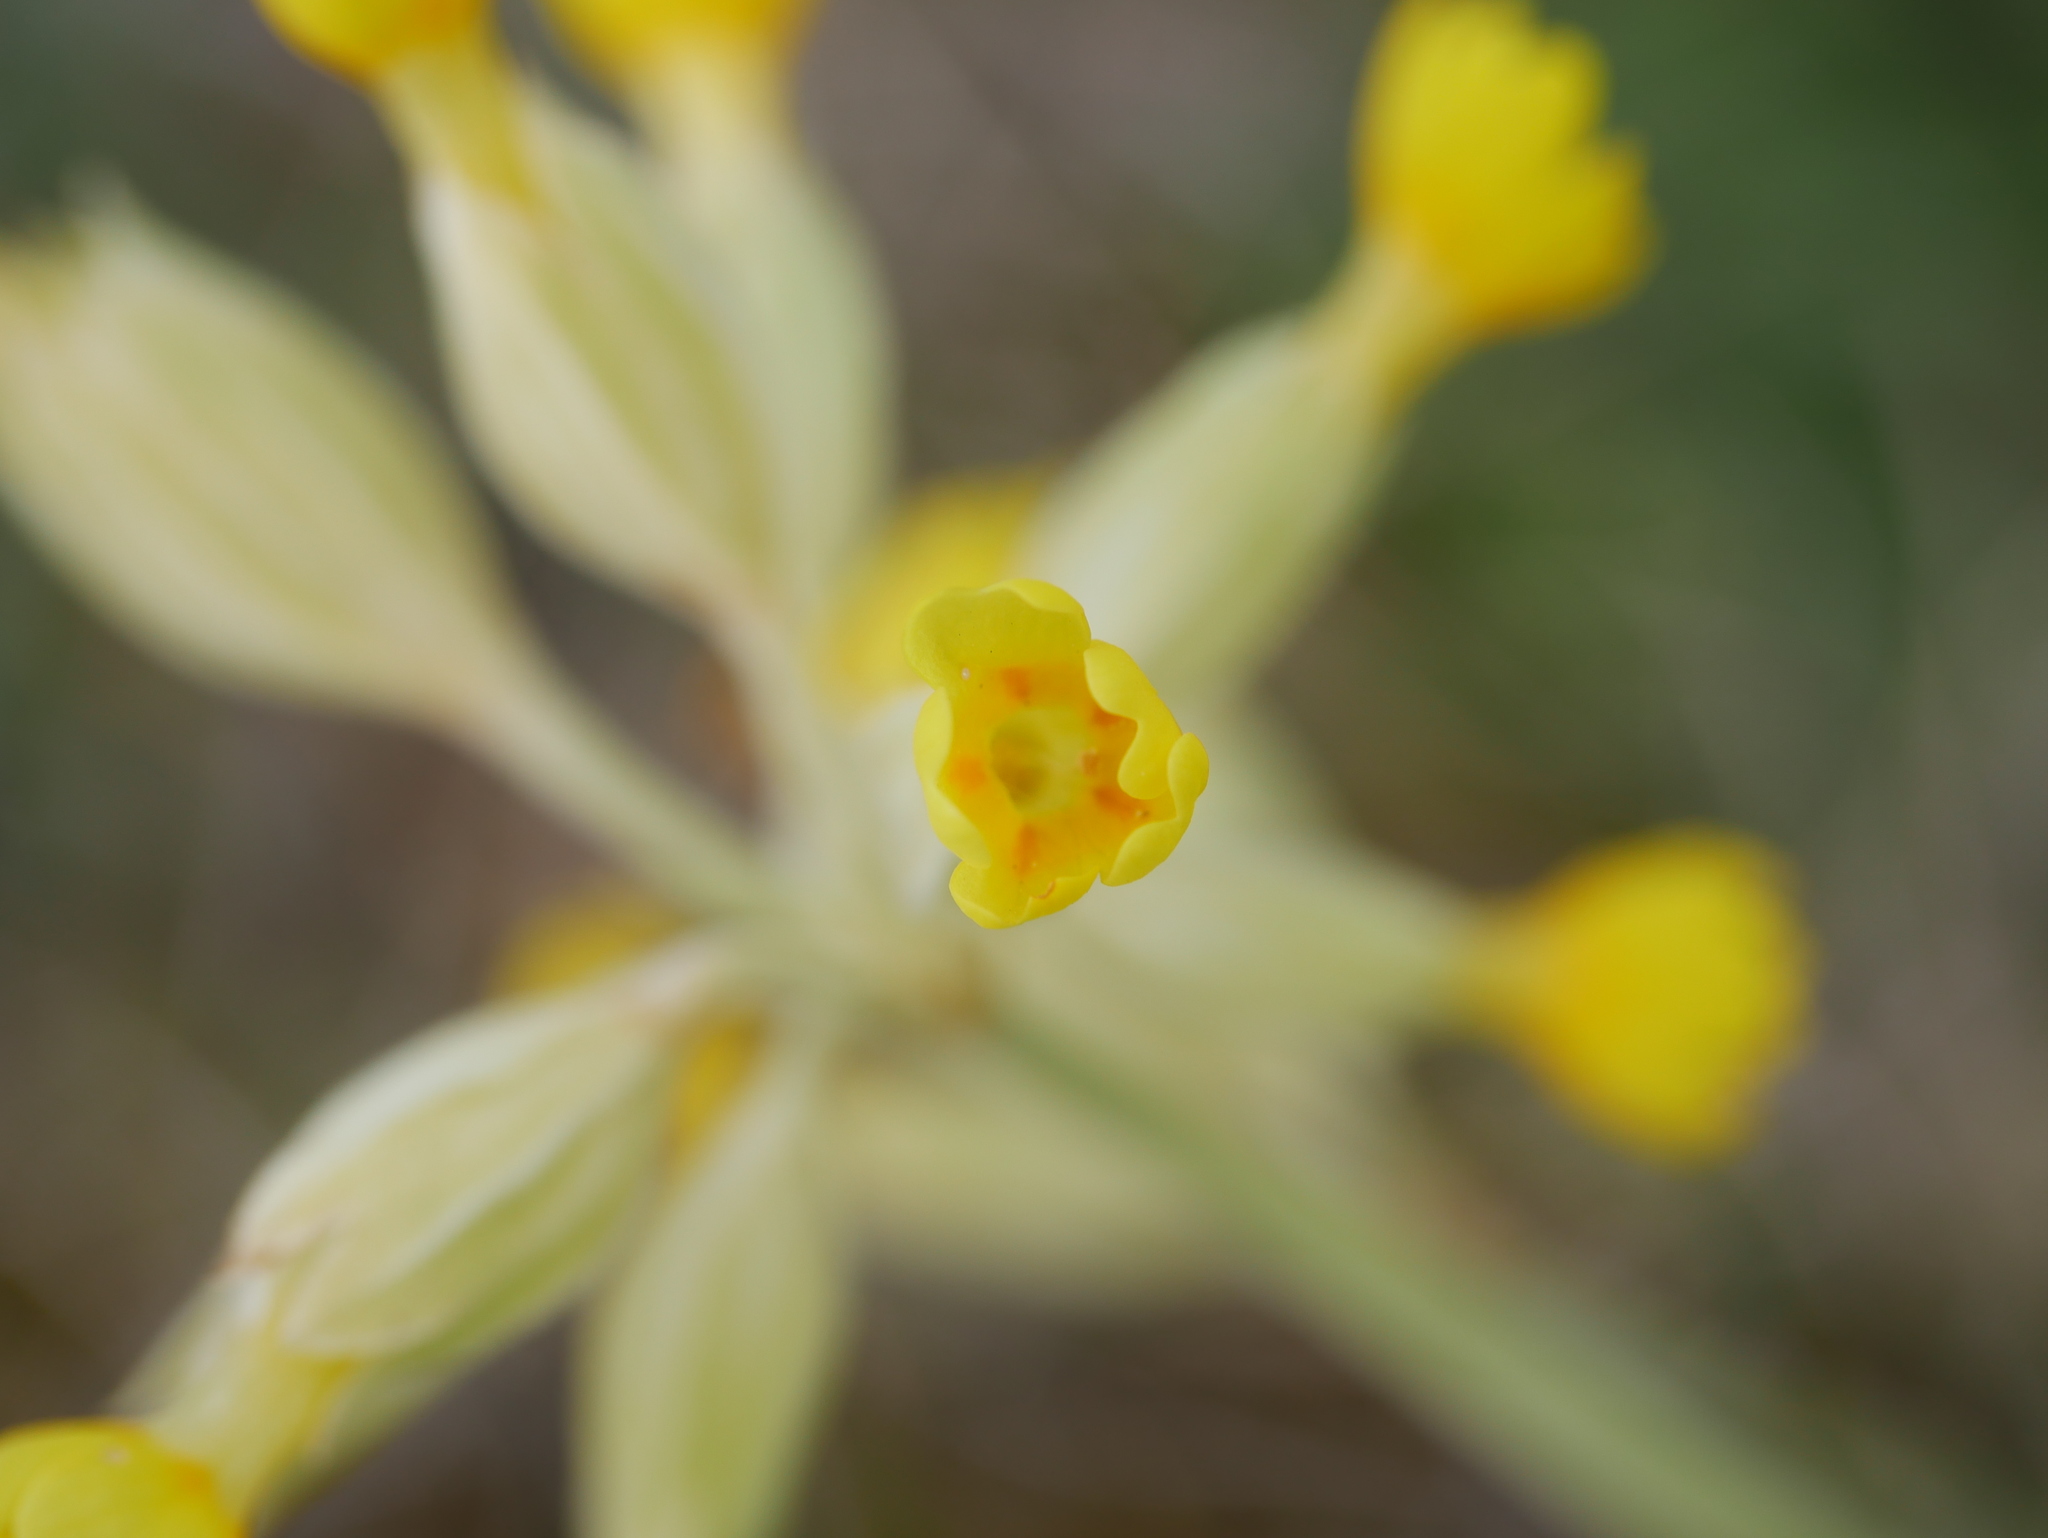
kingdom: Plantae
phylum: Tracheophyta
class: Magnoliopsida
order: Ericales
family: Primulaceae
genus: Primula
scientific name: Primula veris
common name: Cowslip
